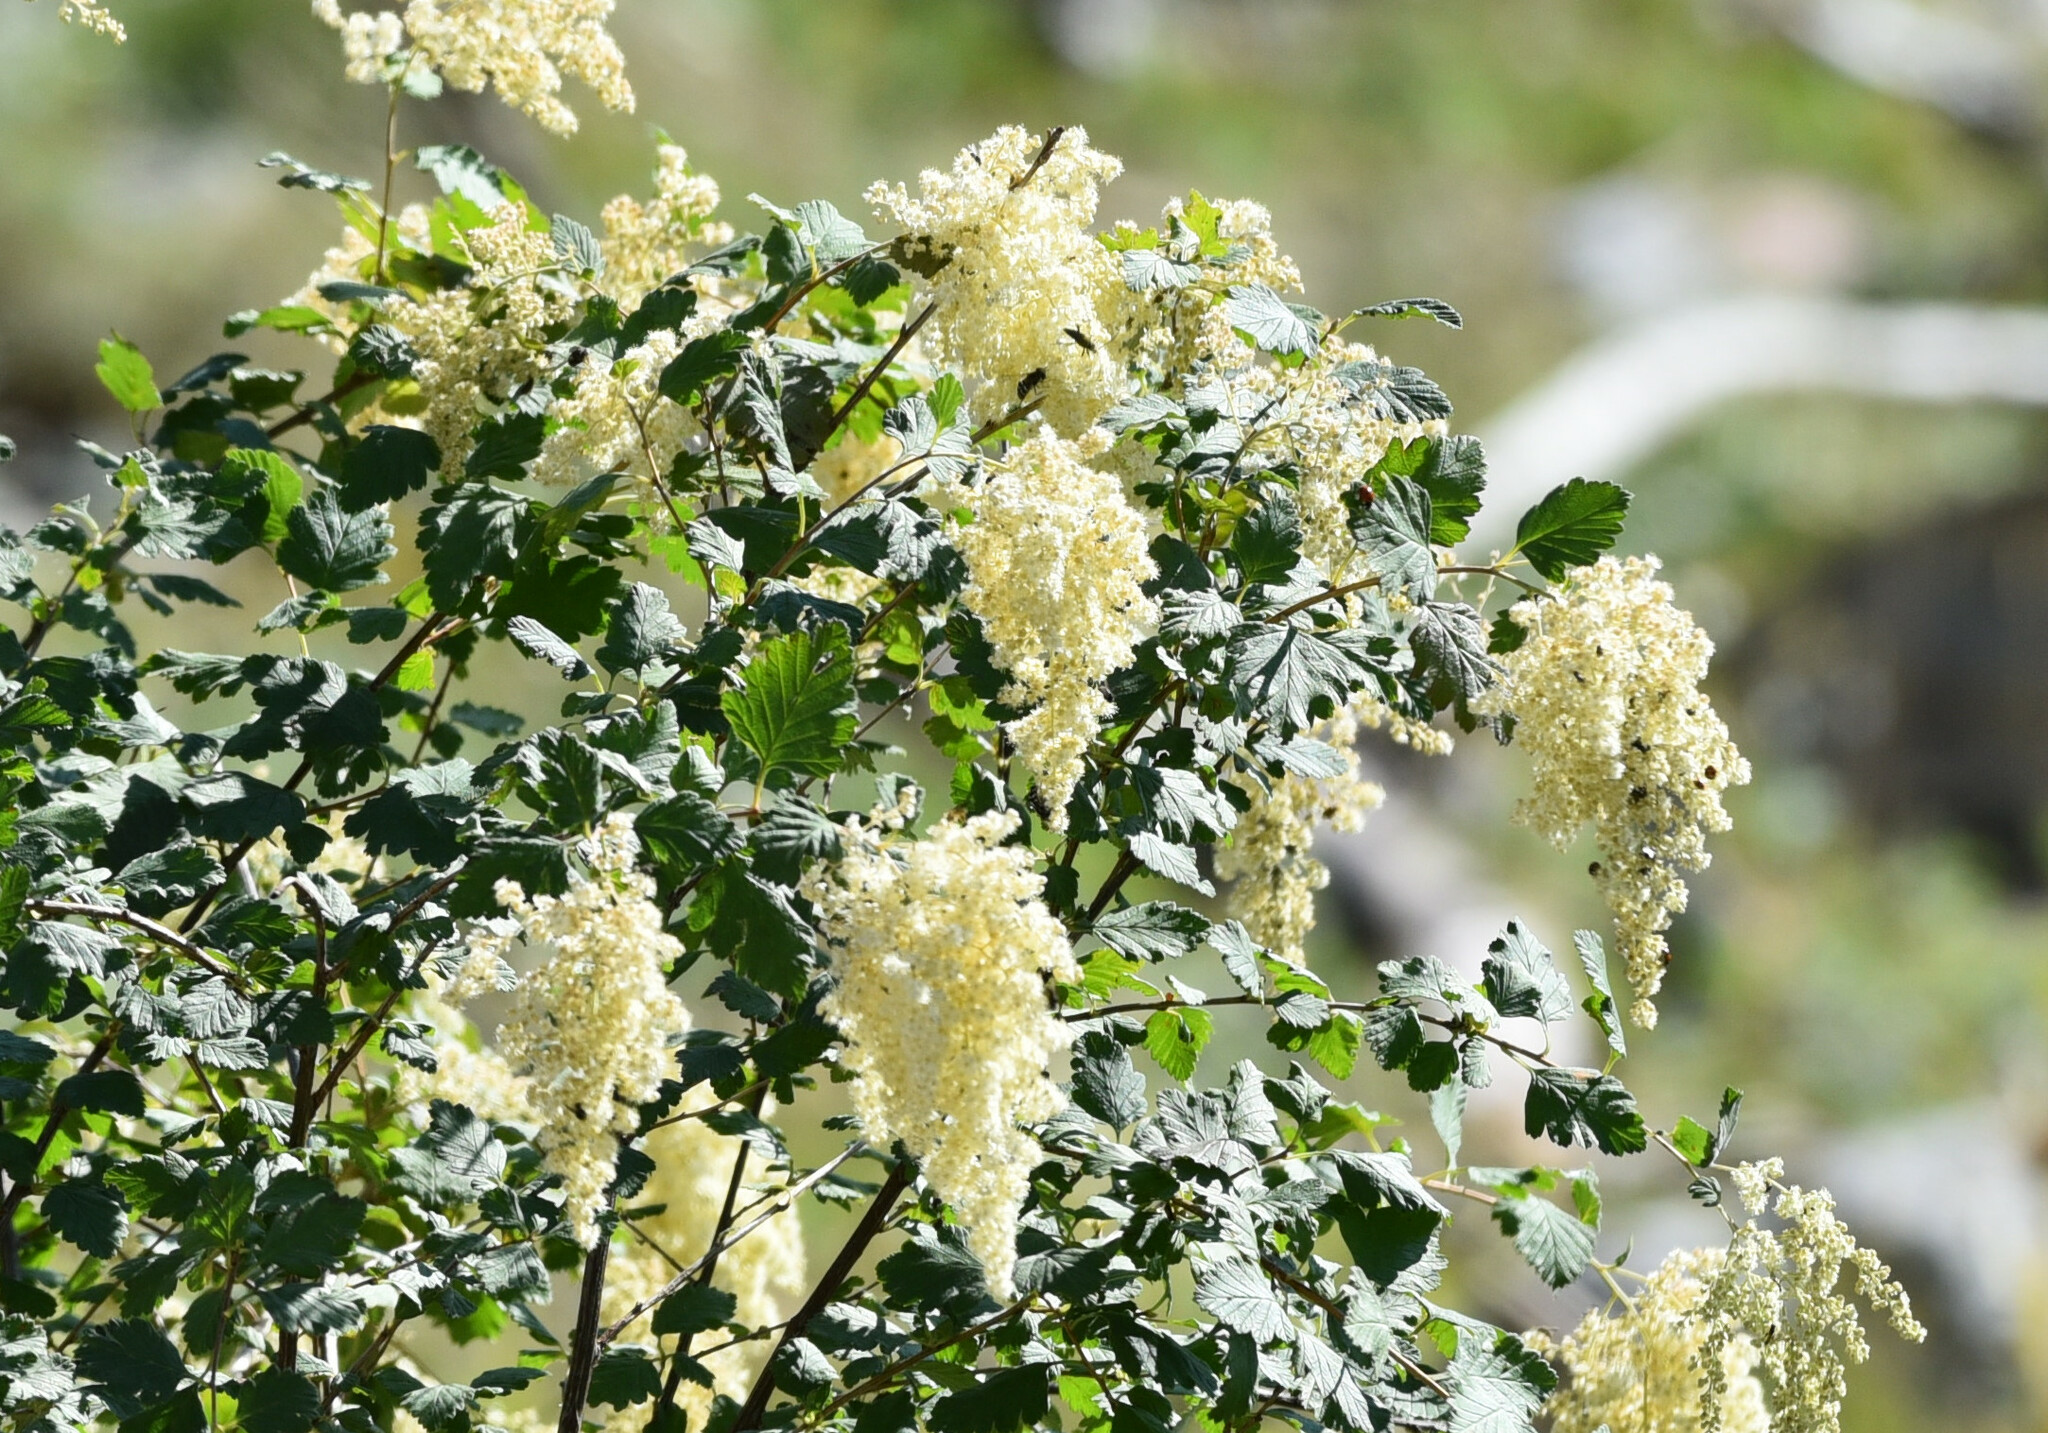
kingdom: Plantae
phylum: Tracheophyta
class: Magnoliopsida
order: Rosales
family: Rosaceae
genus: Holodiscus
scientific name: Holodiscus discolor
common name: Oceanspray
